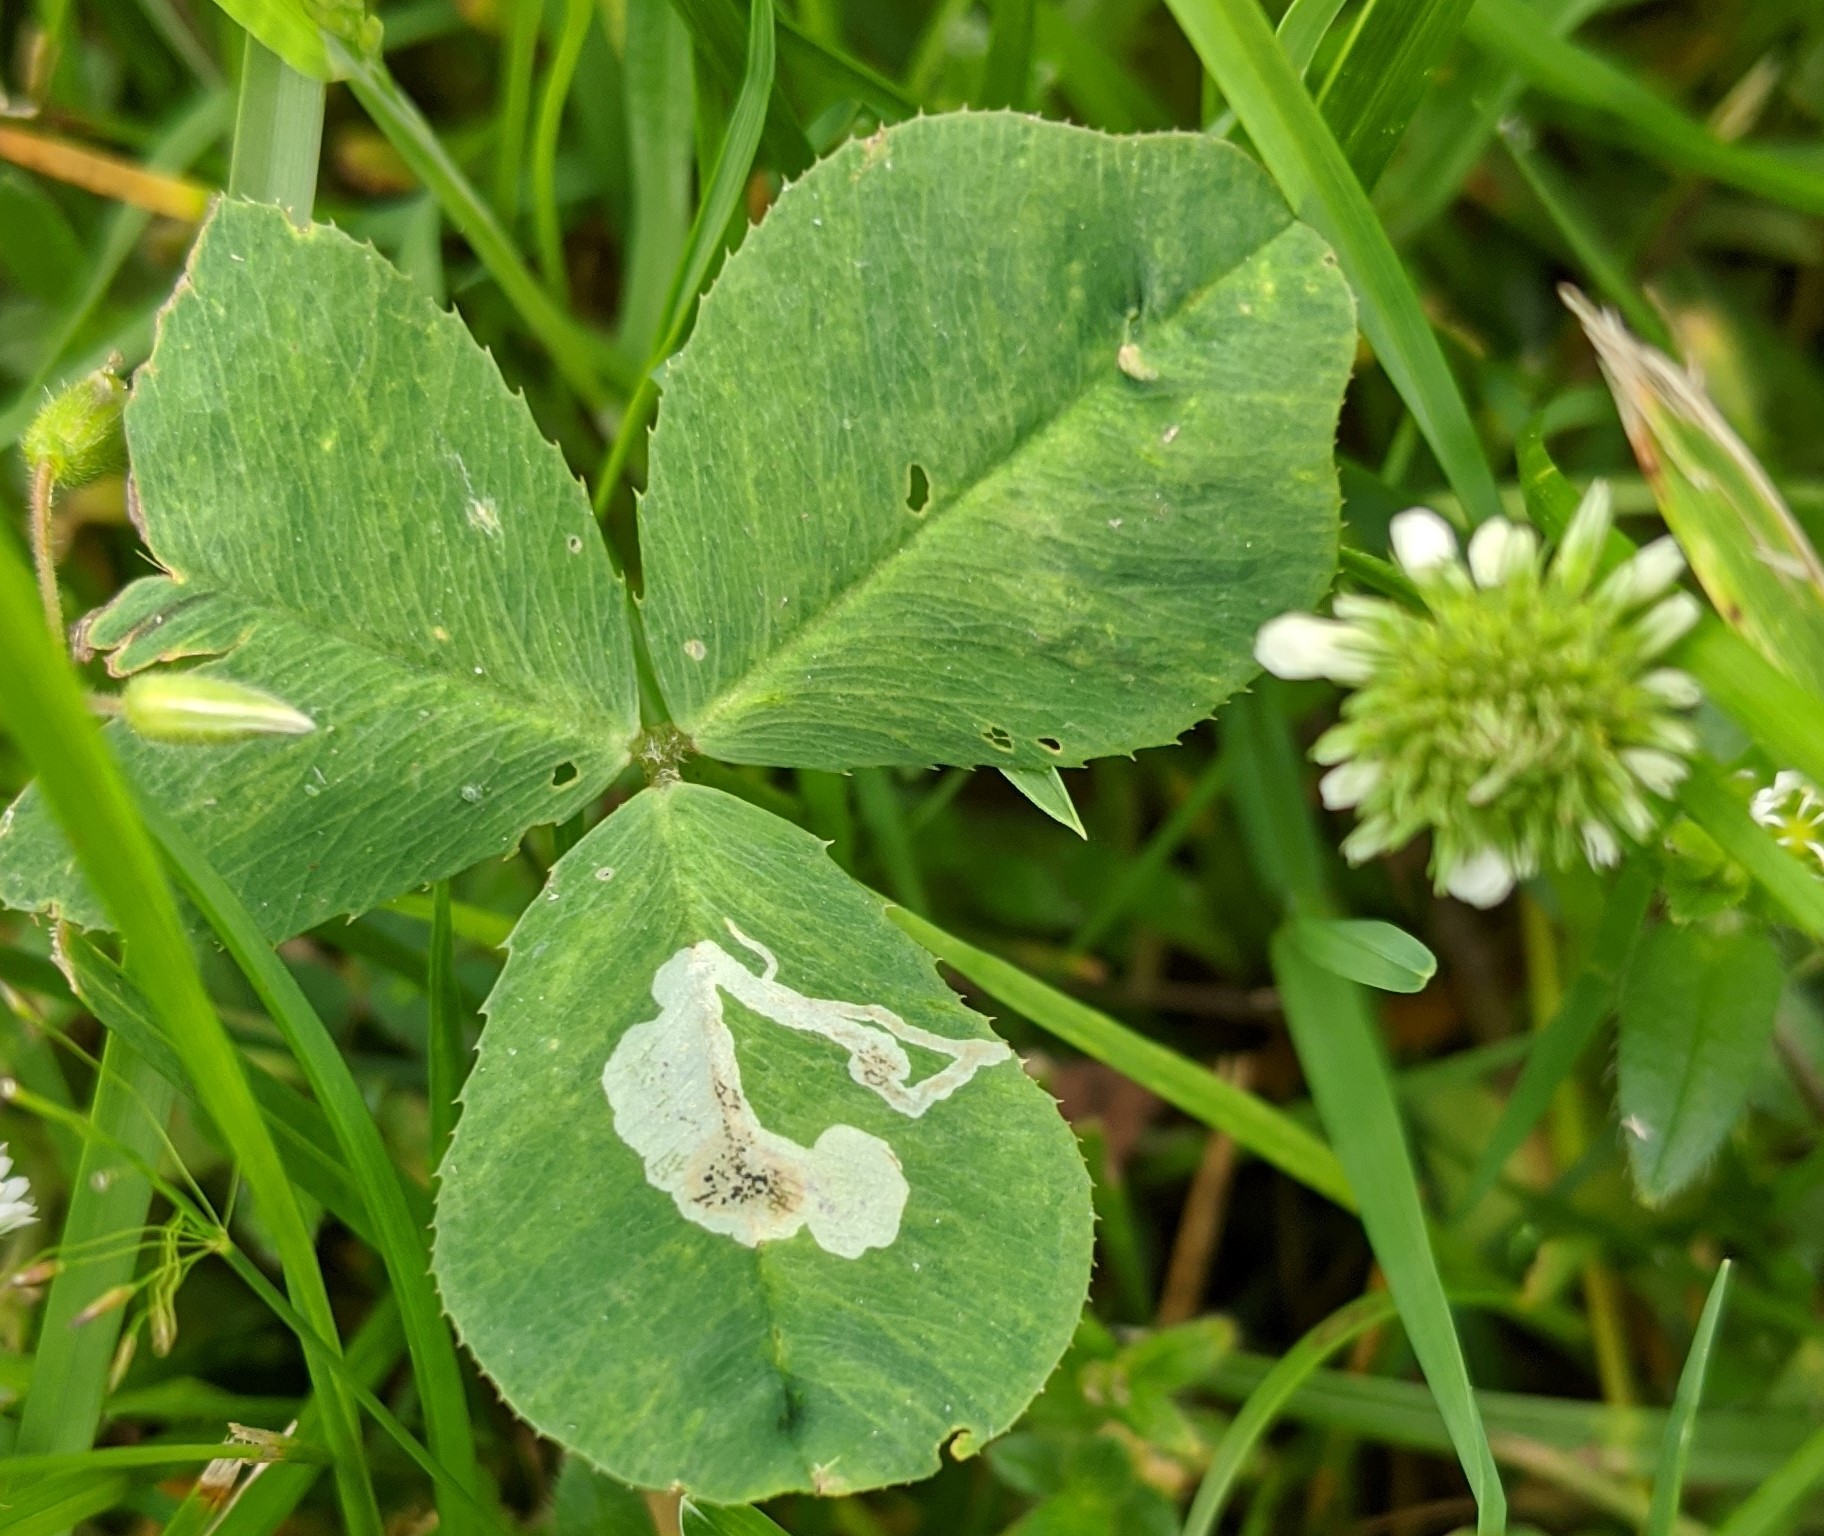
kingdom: Animalia
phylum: Arthropoda
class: Insecta
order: Diptera
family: Agromyzidae
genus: Liriomyza
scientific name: Liriomyza fricki
